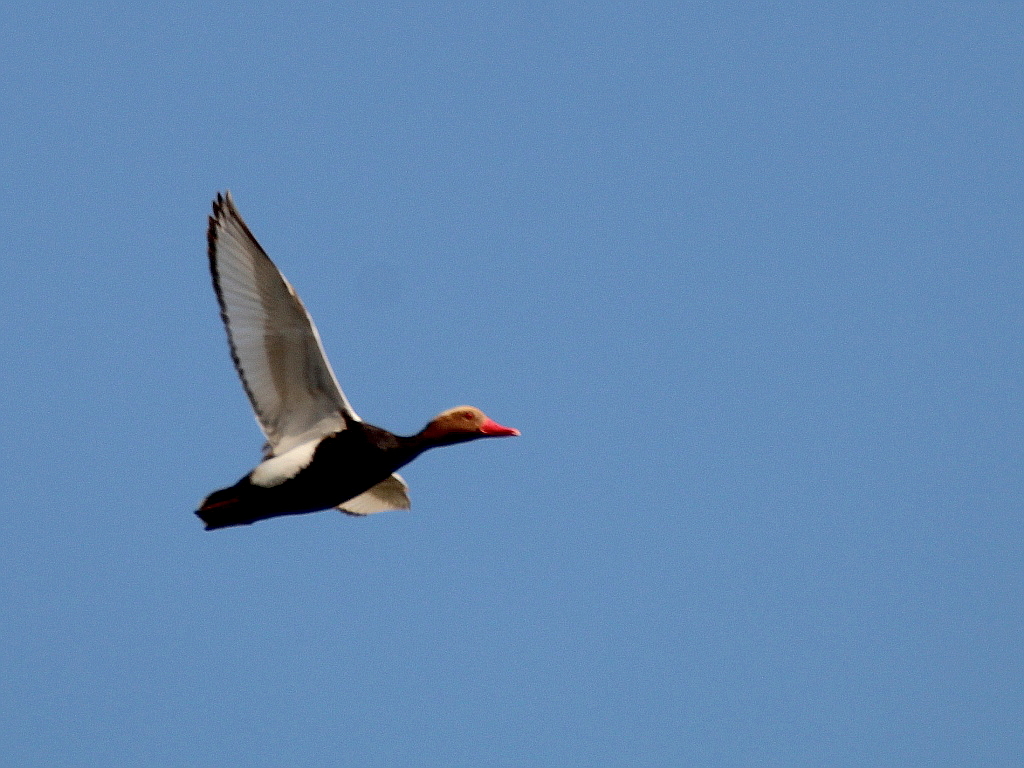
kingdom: Animalia
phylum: Chordata
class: Aves
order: Anseriformes
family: Anatidae
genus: Netta
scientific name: Netta rufina
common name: Red-crested pochard
